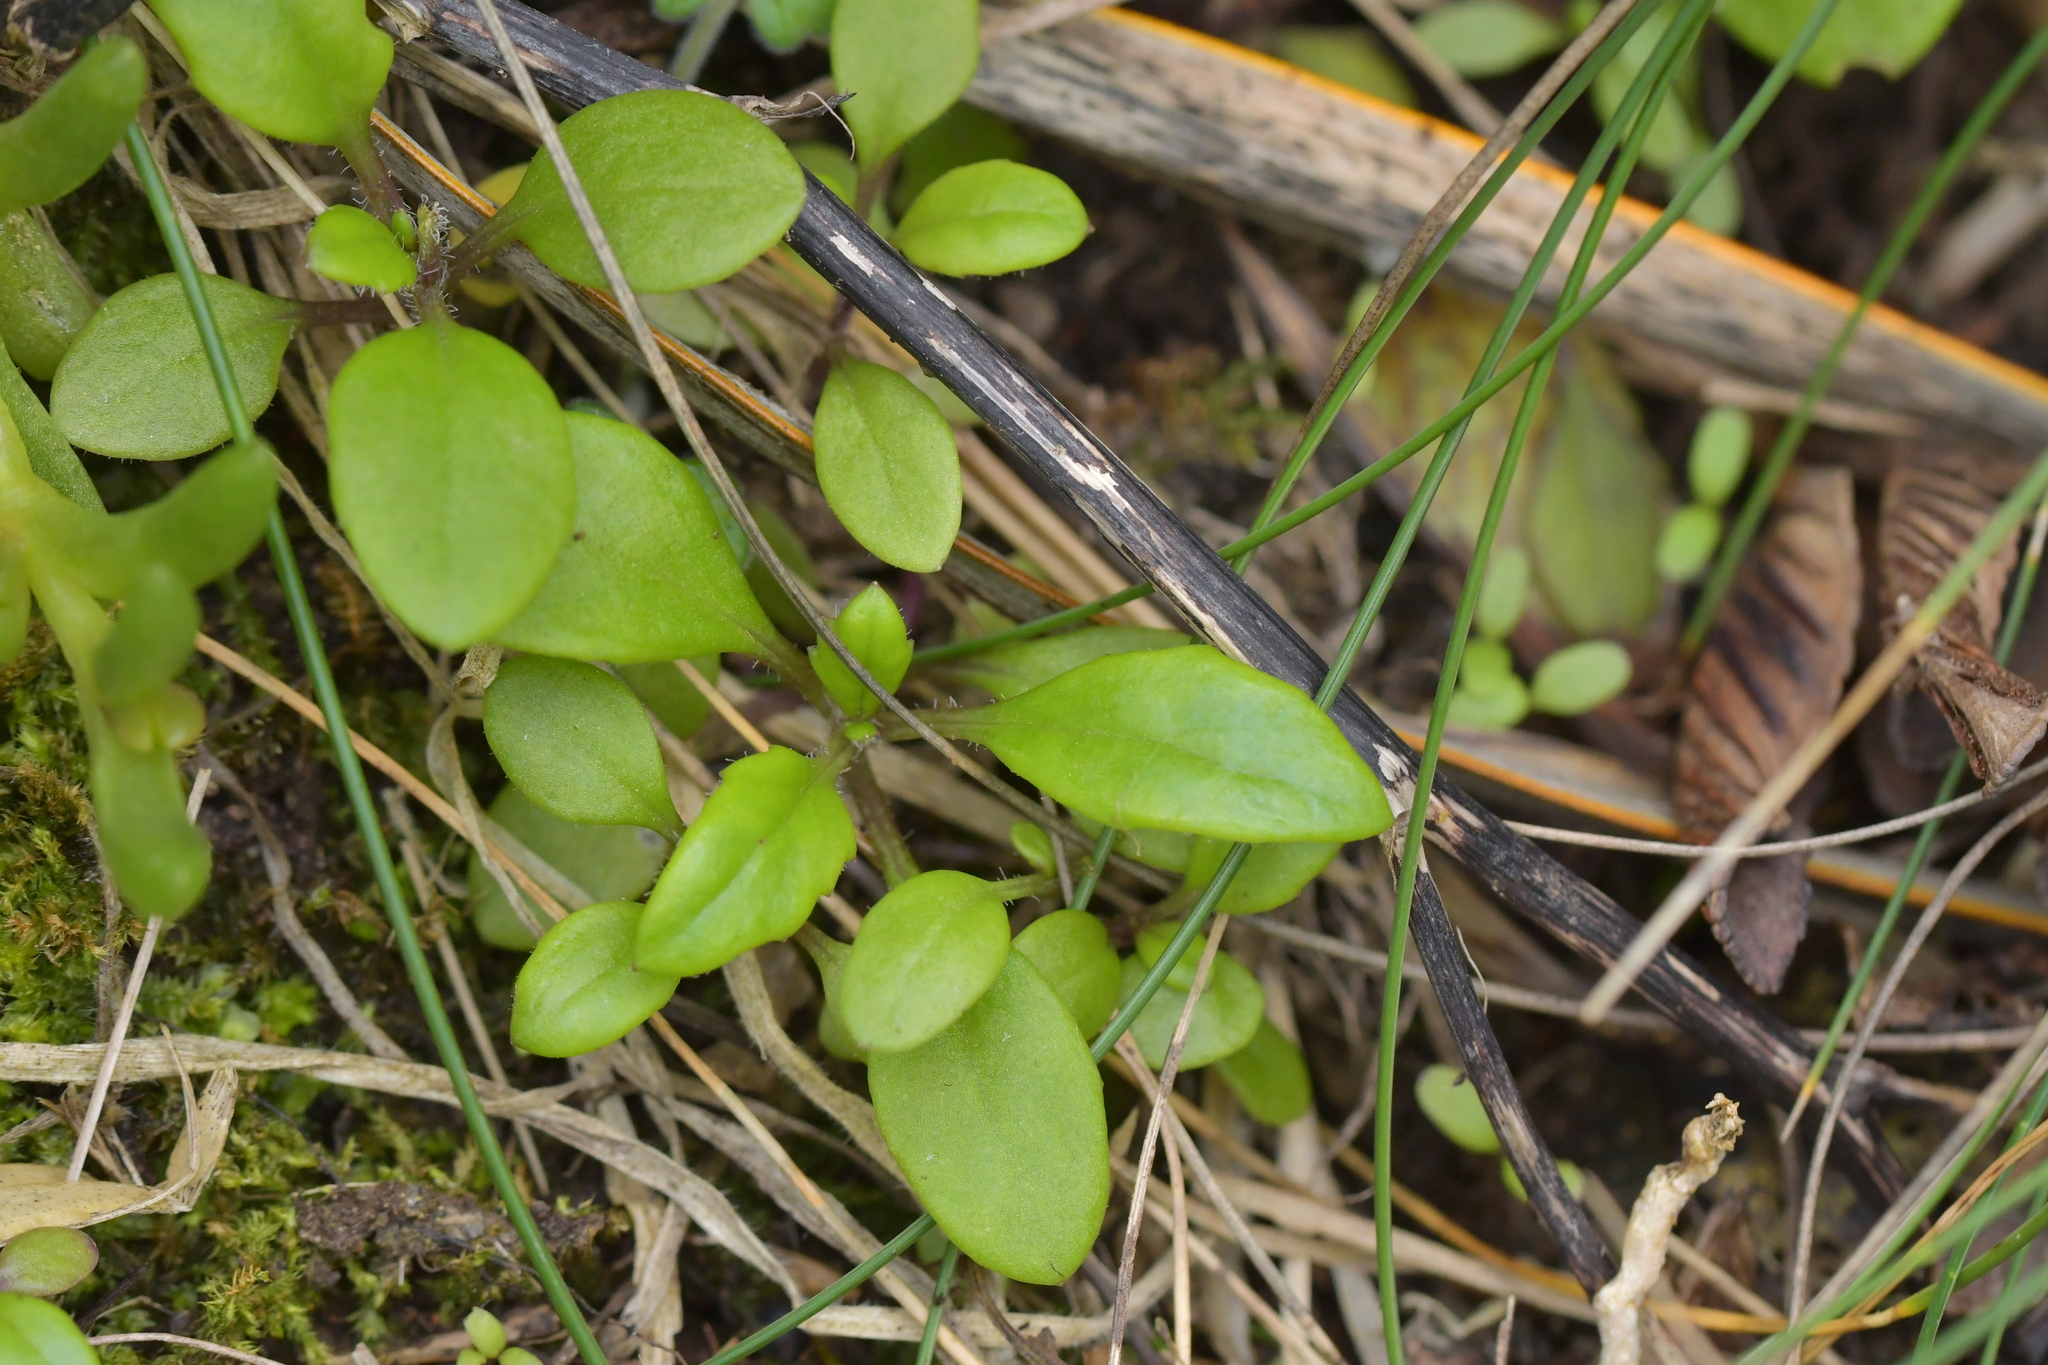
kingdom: Plantae
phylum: Tracheophyta
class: Magnoliopsida
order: Asterales
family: Asteraceae
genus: Senecio
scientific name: Senecio lautus
